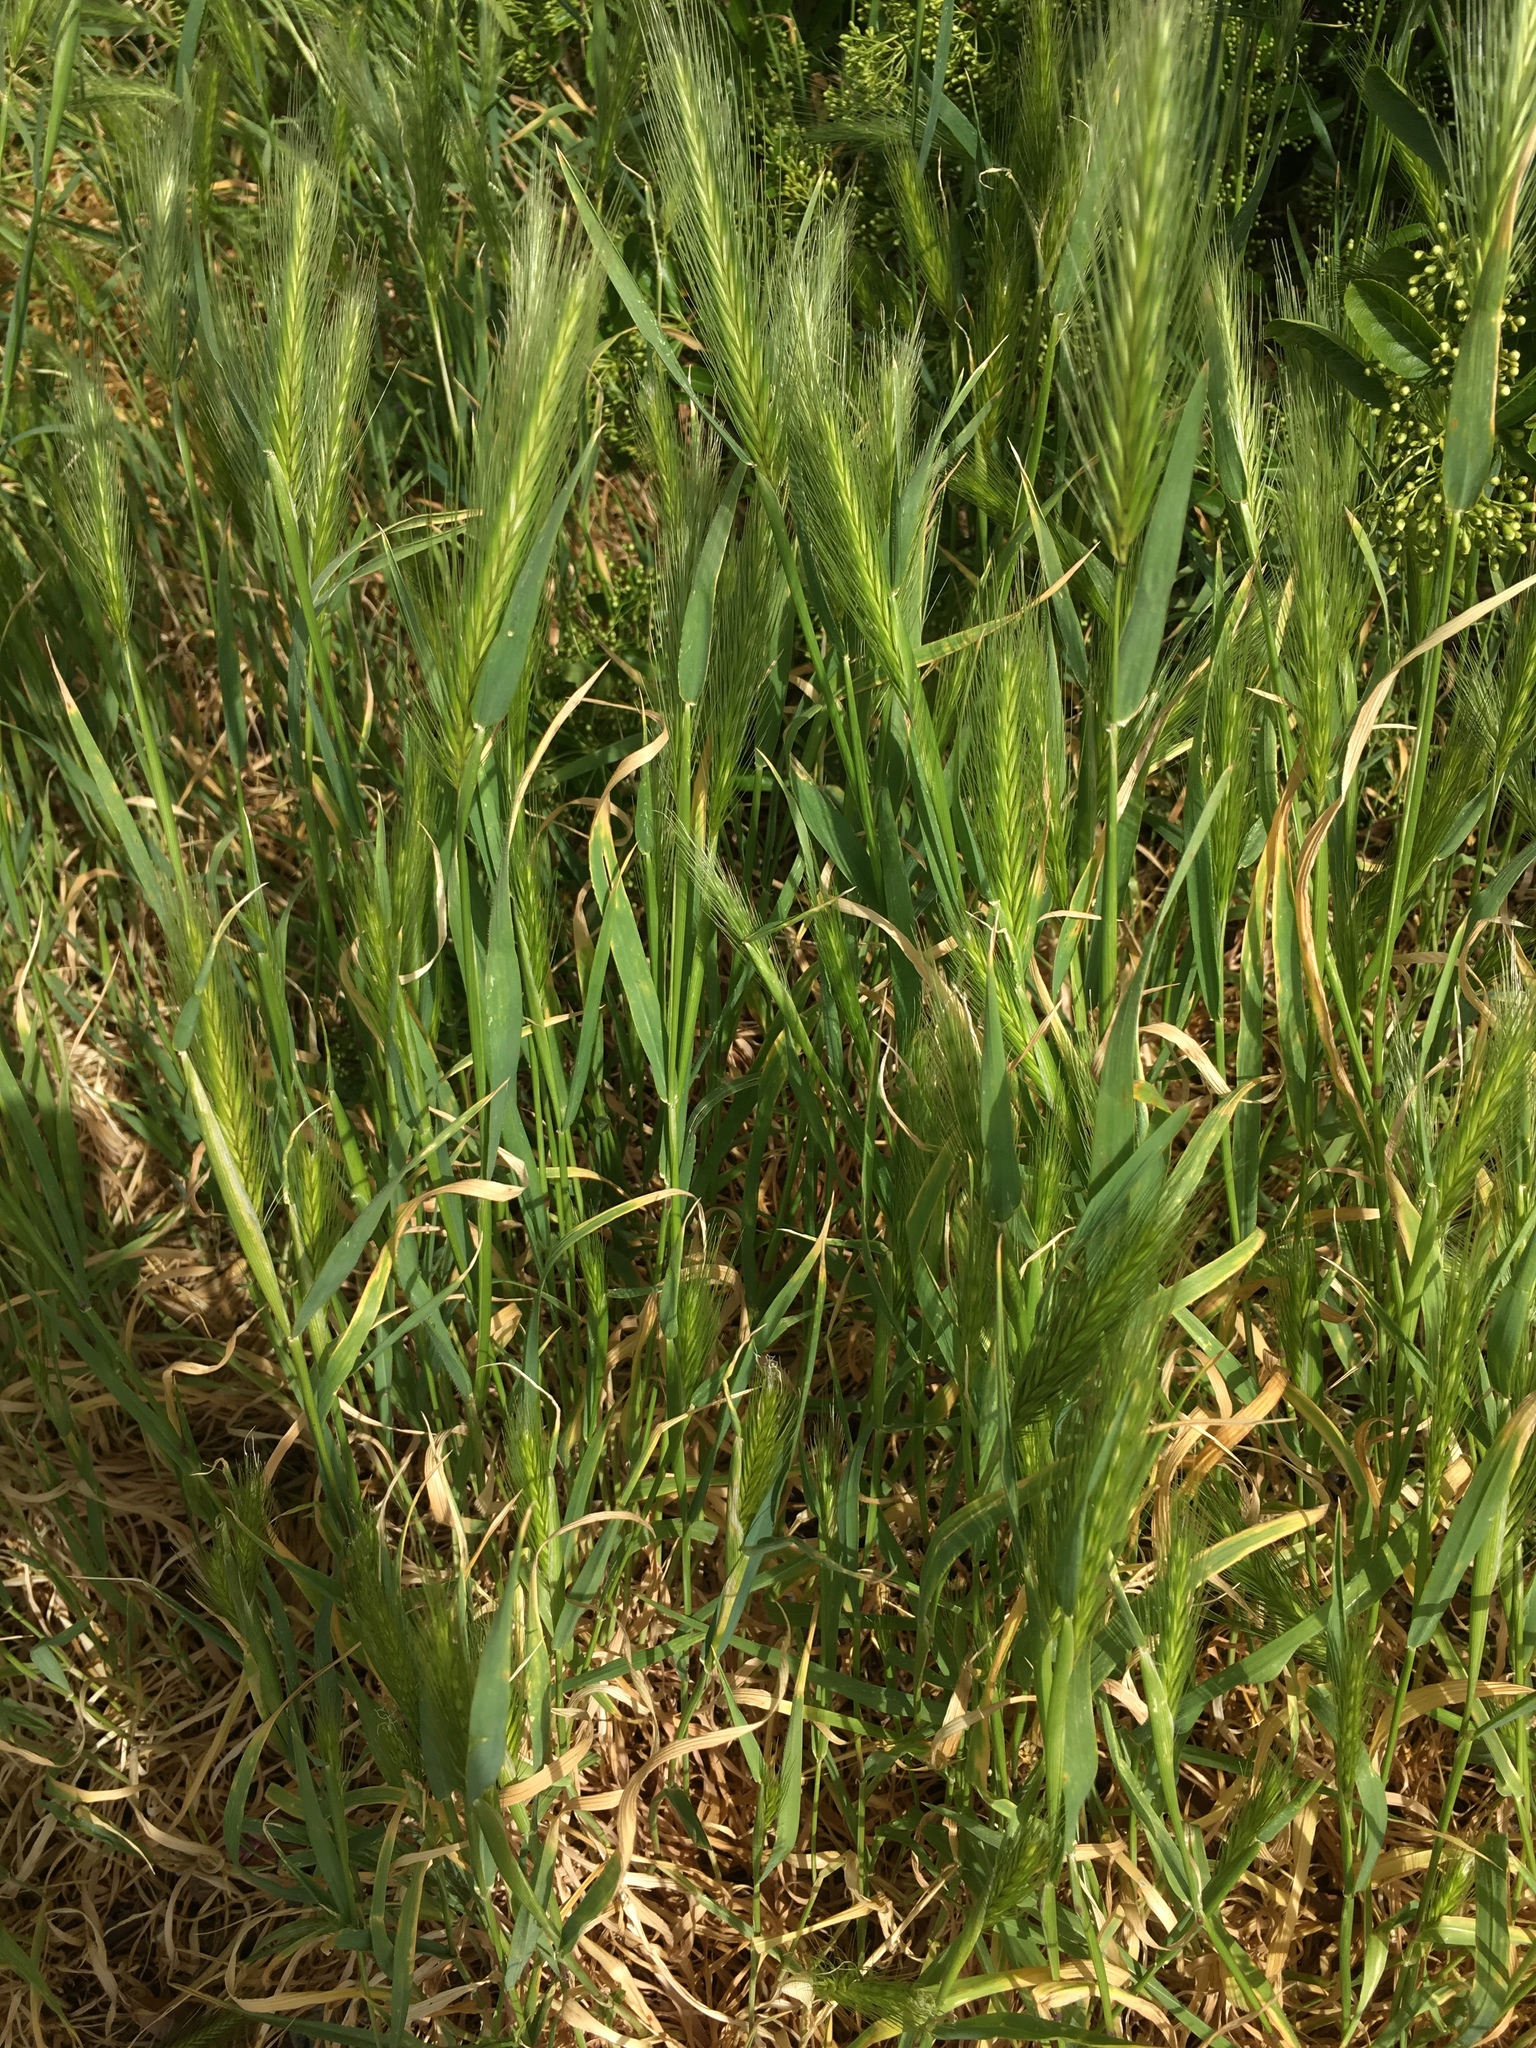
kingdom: Plantae
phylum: Tracheophyta
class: Liliopsida
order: Poales
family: Poaceae
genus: Hordeum
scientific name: Hordeum murinum
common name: Wall barley
